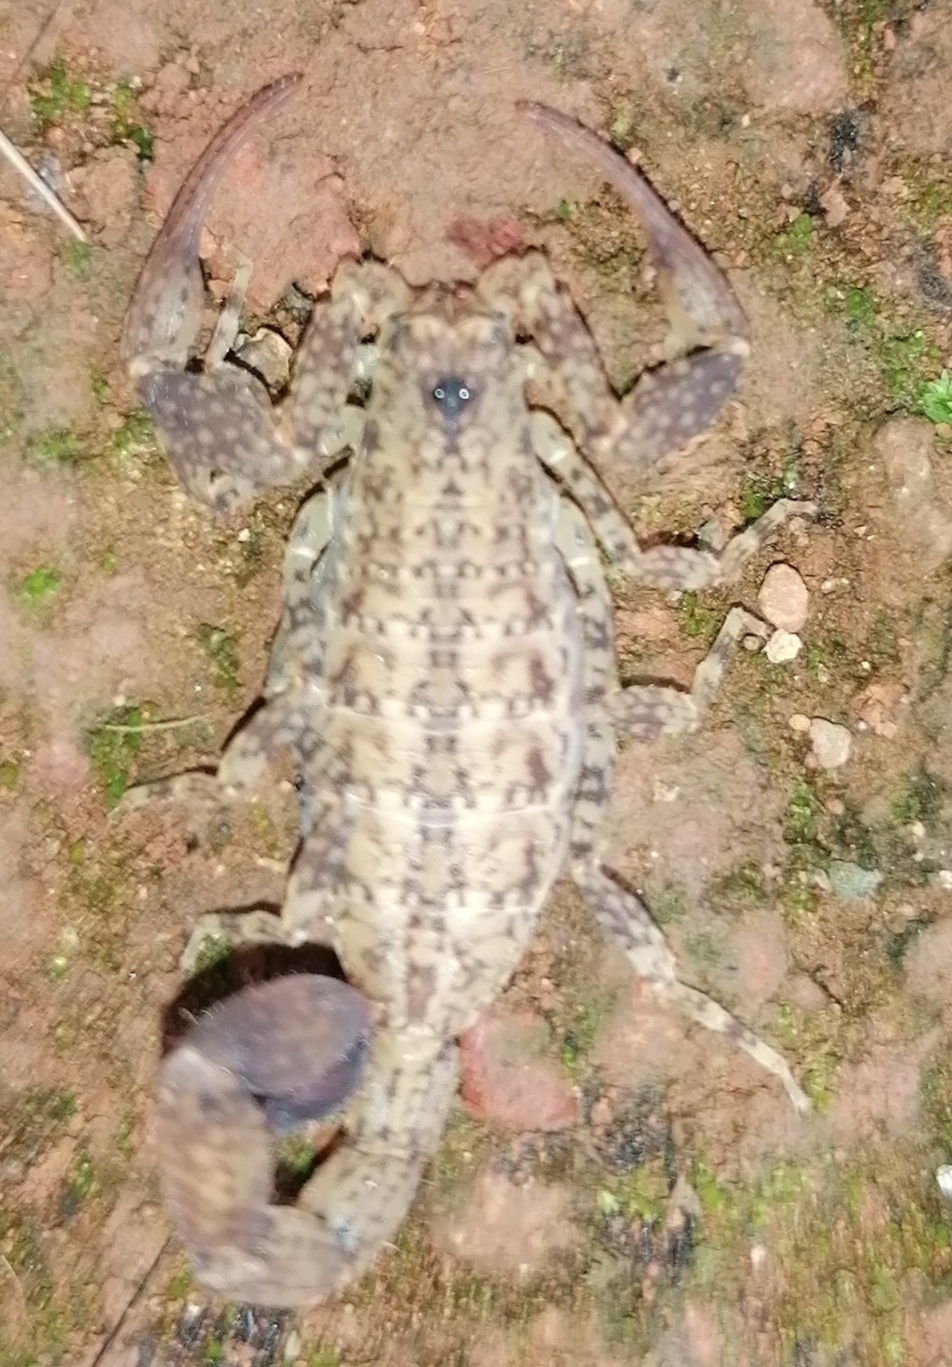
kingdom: Animalia
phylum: Arthropoda
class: Arachnida
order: Scorpiones
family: Buthidae
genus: Tityus
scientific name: Tityus tayrona
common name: Scorpiones
